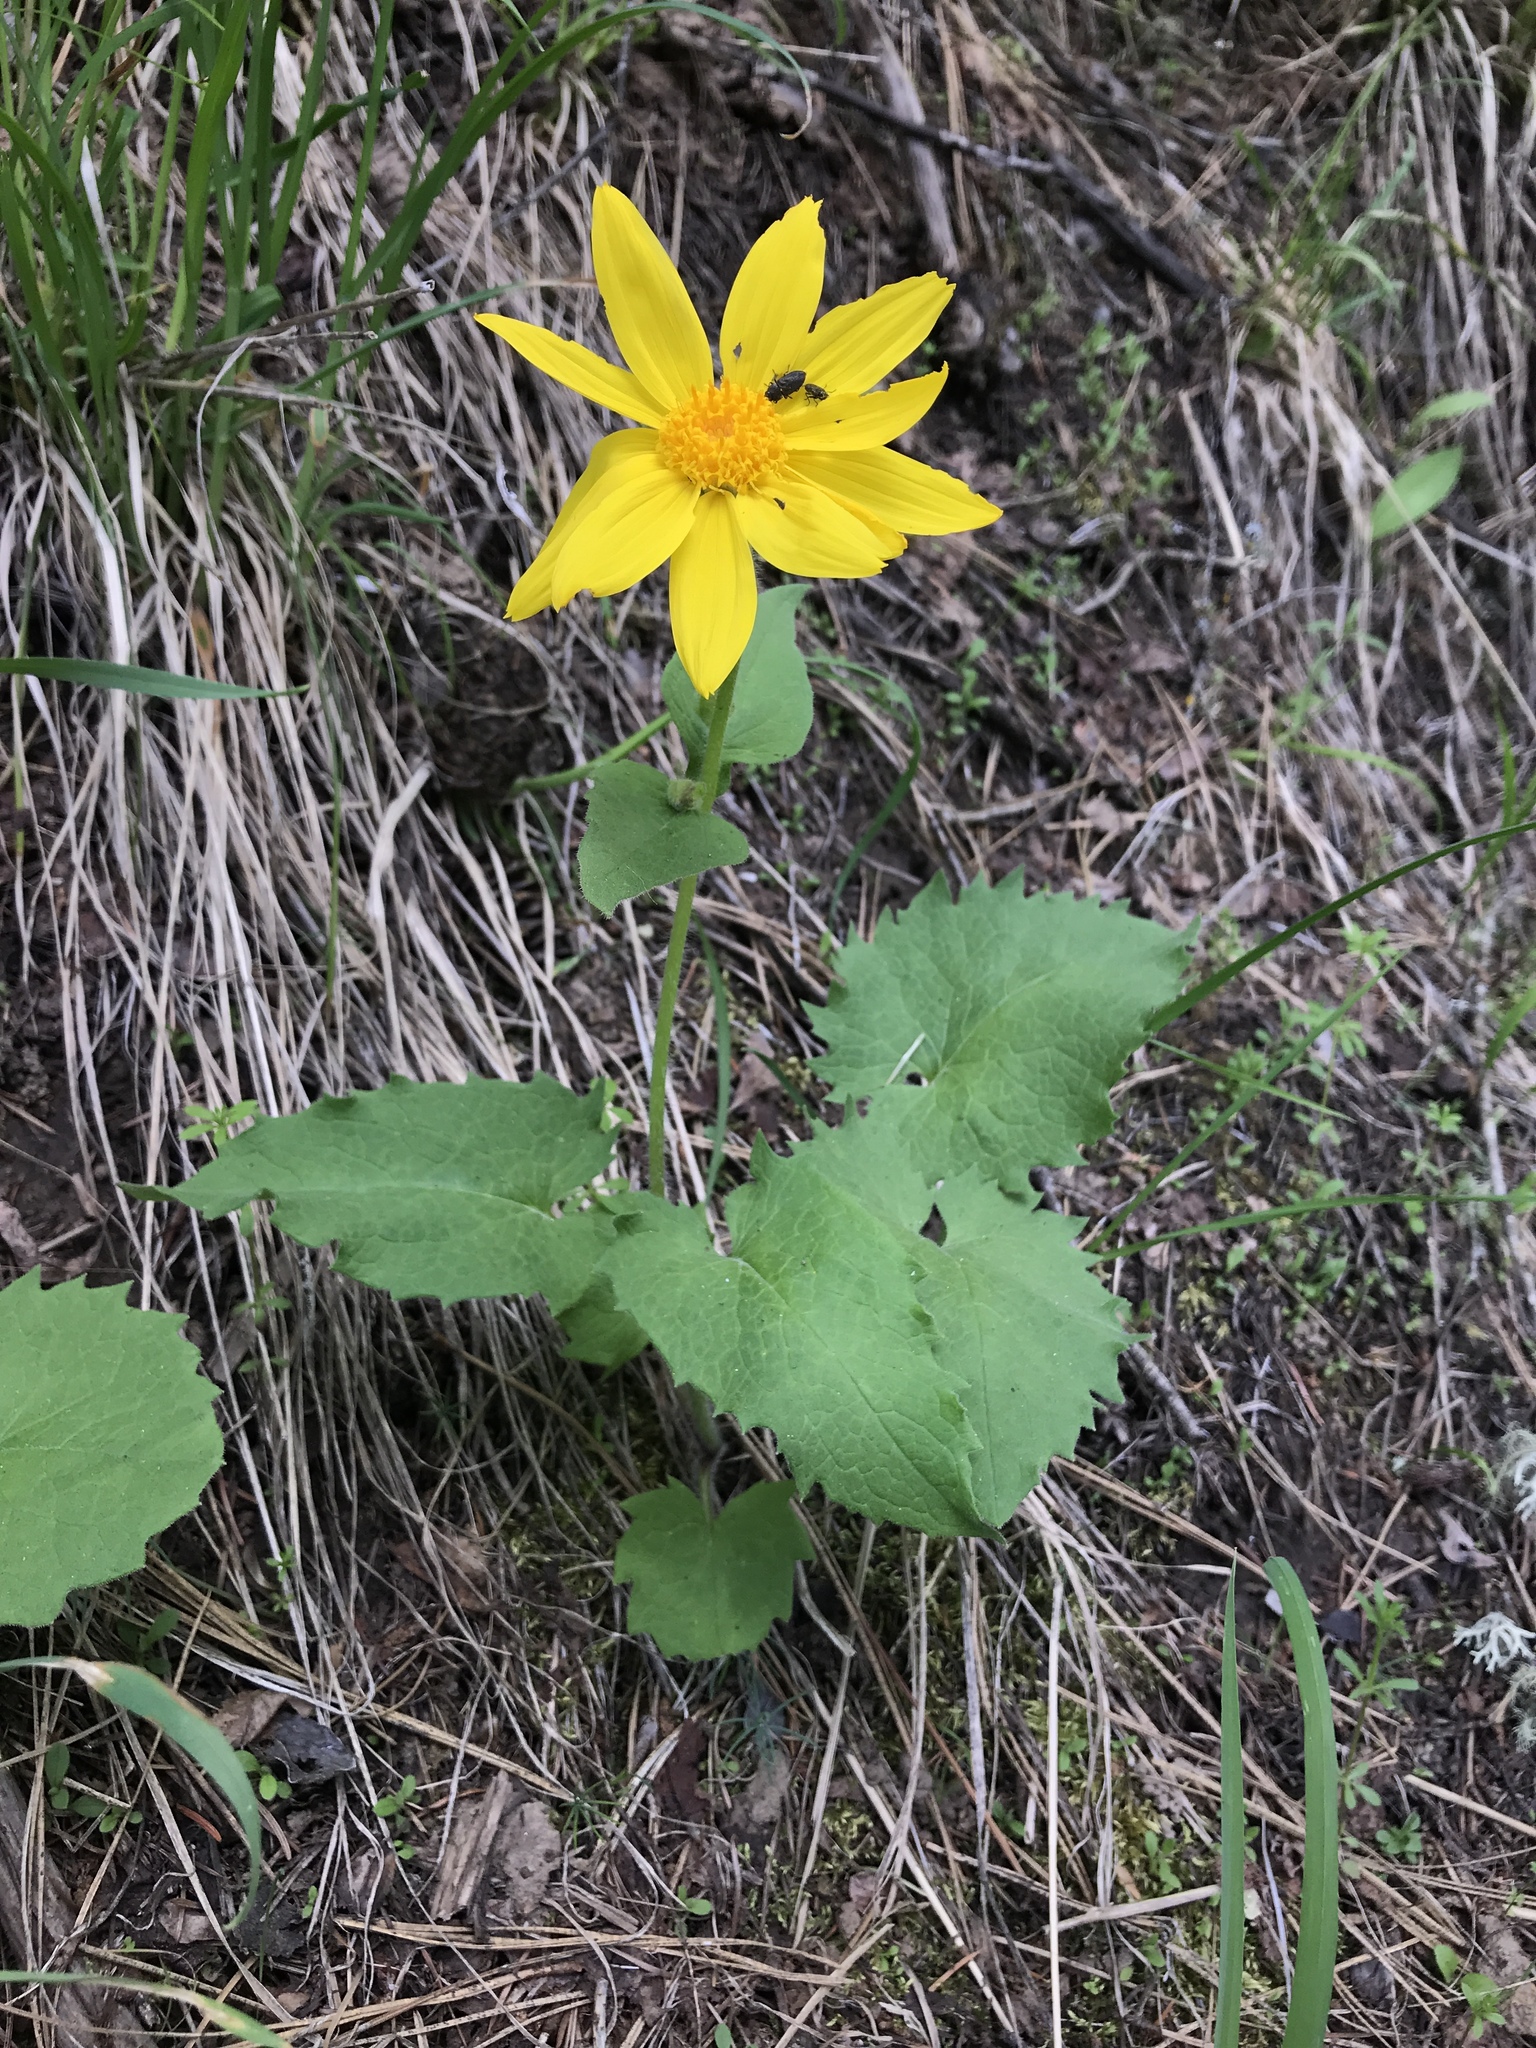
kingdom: Plantae
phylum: Tracheophyta
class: Magnoliopsida
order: Asterales
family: Asteraceae
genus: Arnica
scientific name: Arnica cordifolia
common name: Heart-leaf arnica
